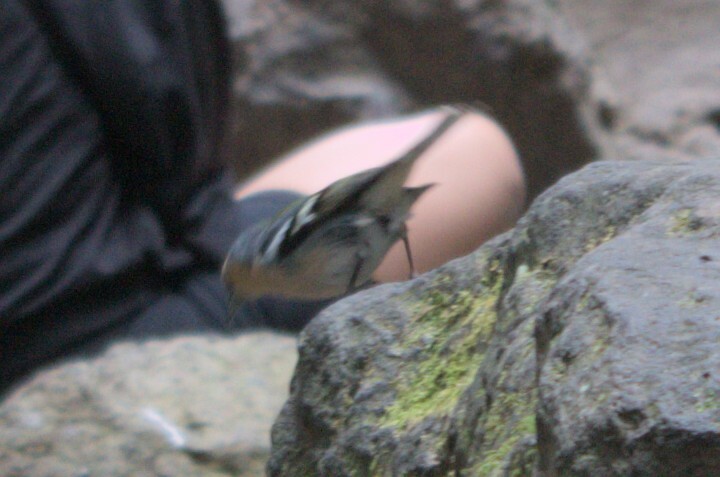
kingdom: Animalia
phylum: Chordata
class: Aves
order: Passeriformes
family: Fringillidae
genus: Fringilla
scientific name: Fringilla moreletti
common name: Azores chaffinch
